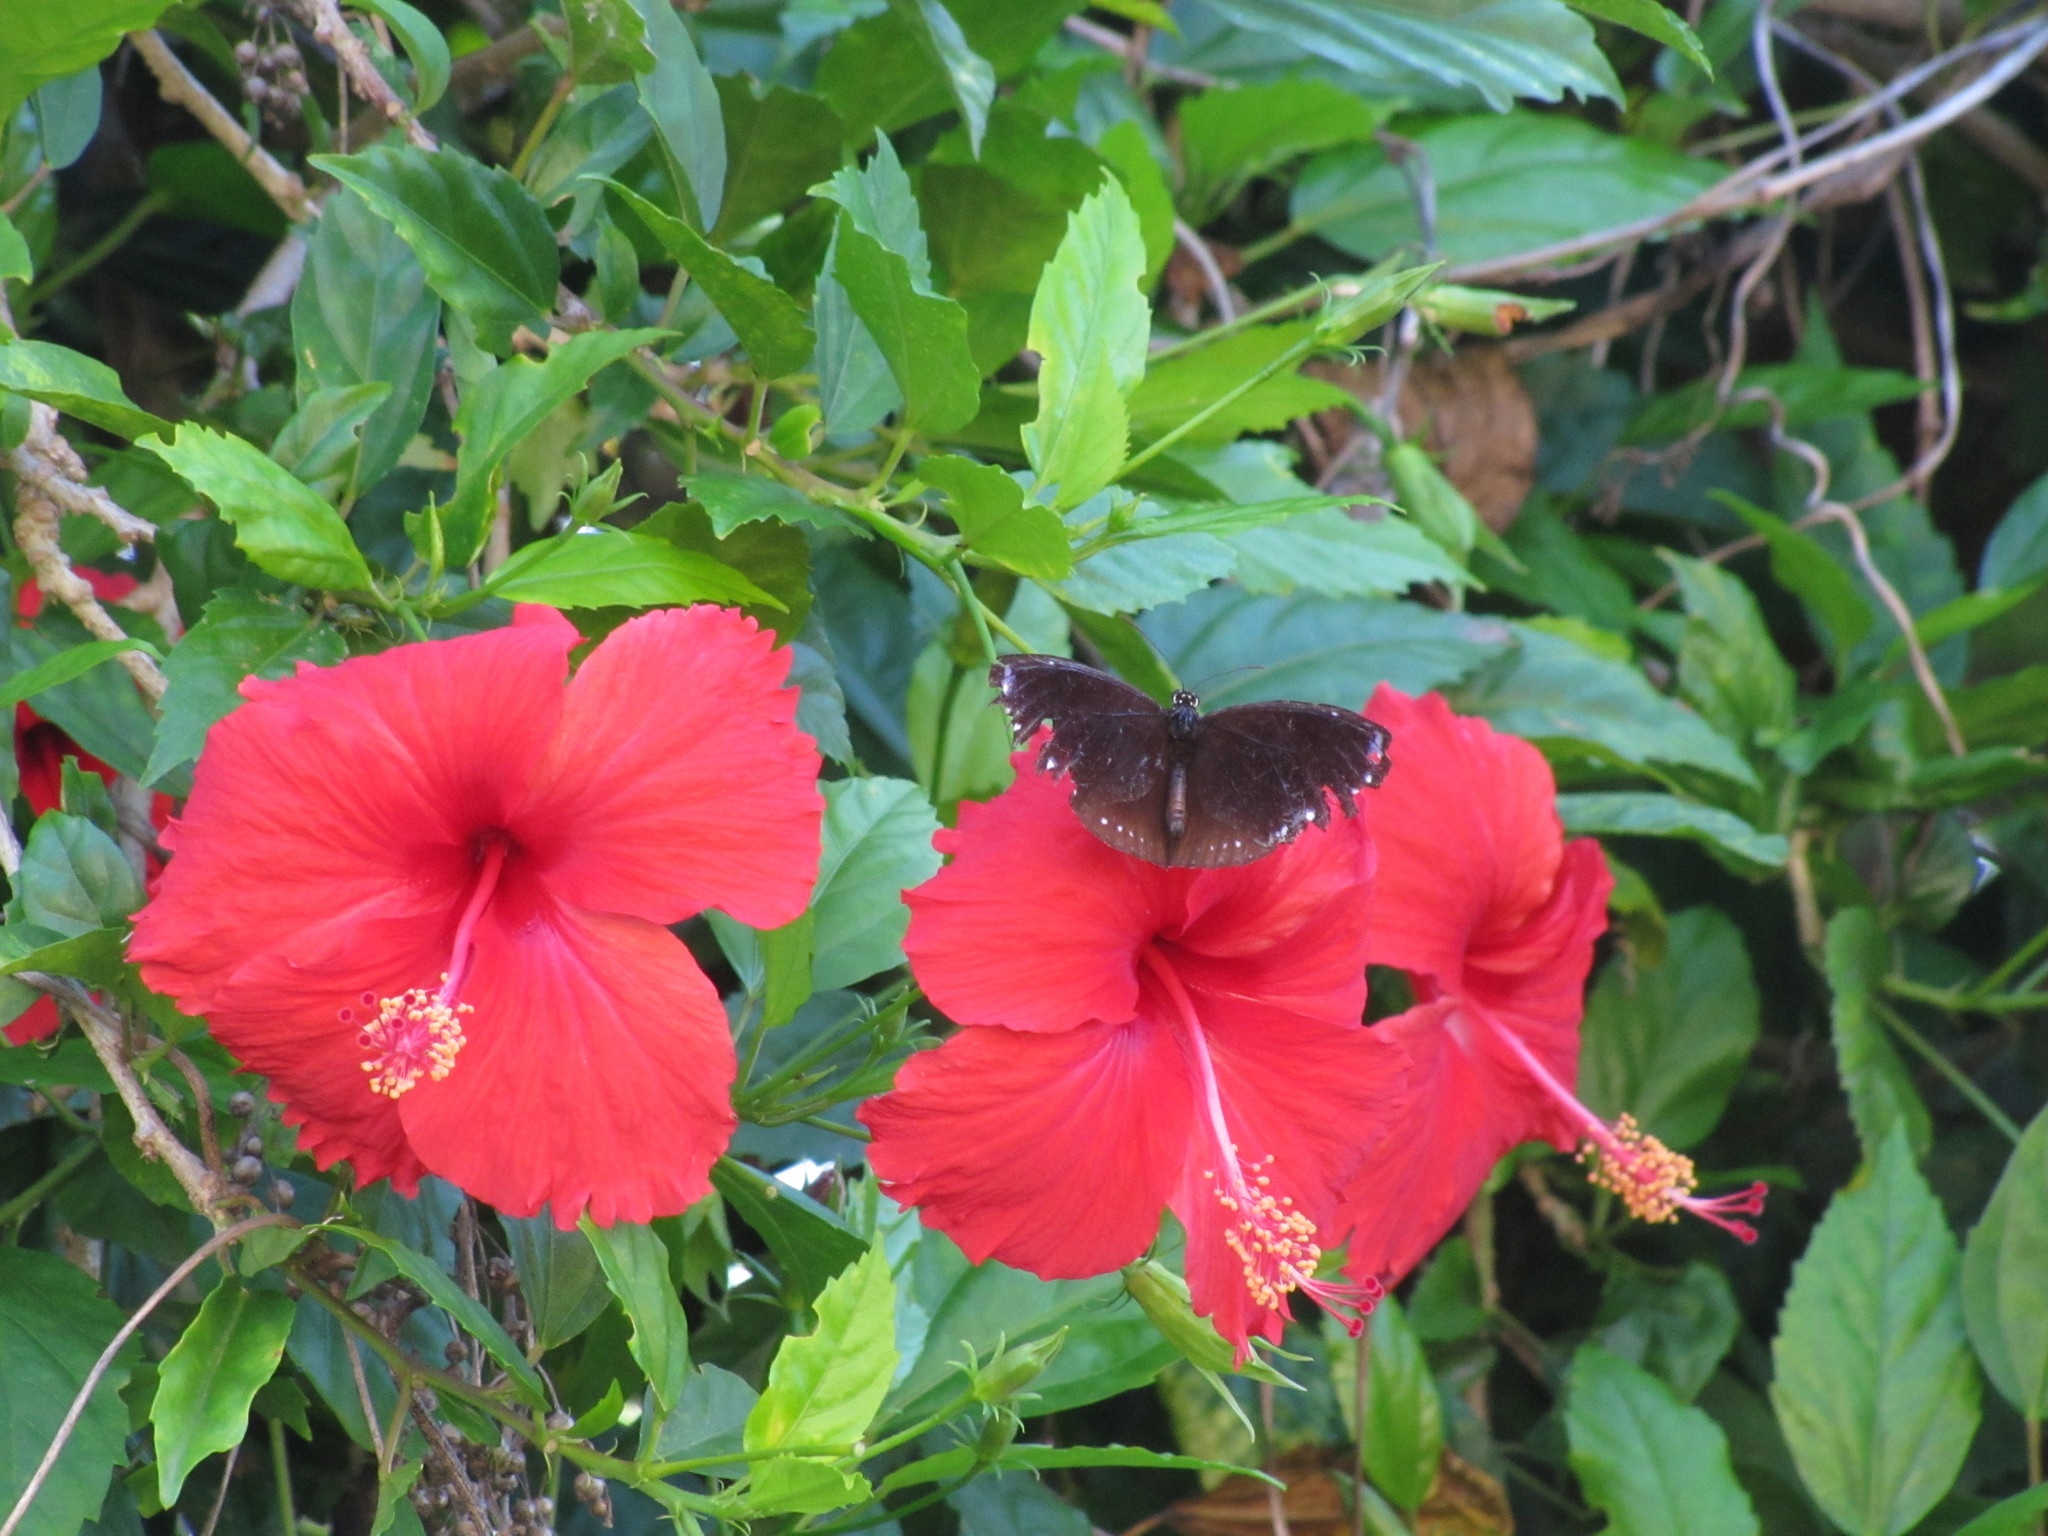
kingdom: Animalia
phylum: Arthropoda
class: Insecta
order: Lepidoptera
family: Nymphalidae
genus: Euploea
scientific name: Euploea tulliolus
